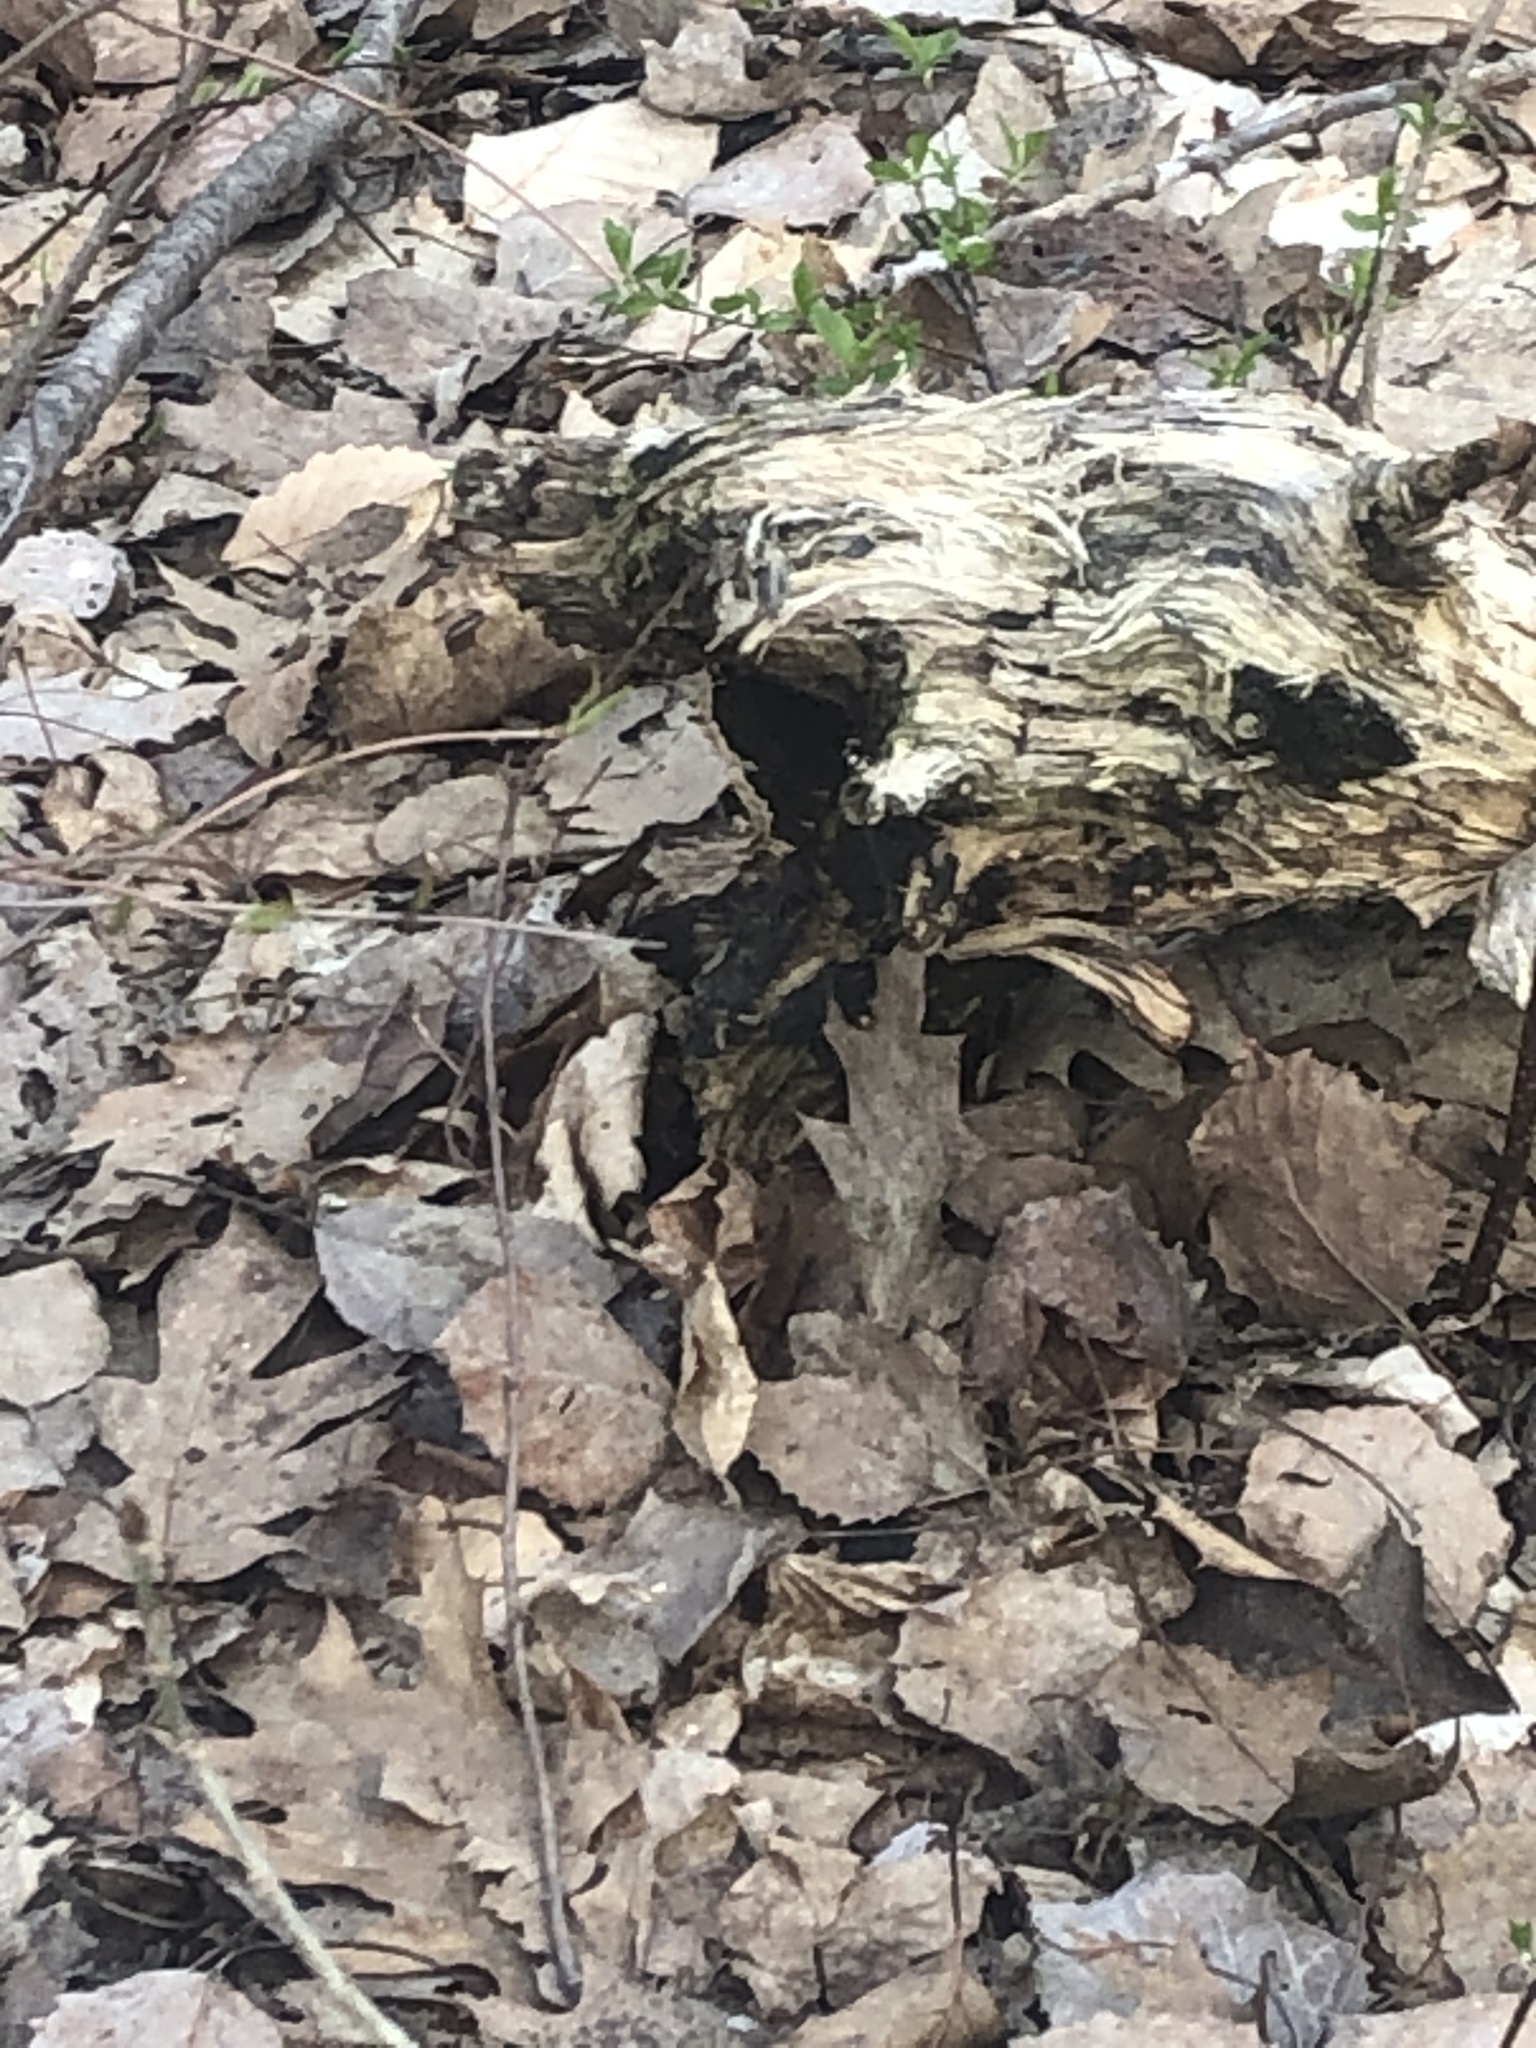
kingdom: Animalia
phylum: Arthropoda
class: Insecta
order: Lepidoptera
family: Nymphalidae
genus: Nymphalis
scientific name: Nymphalis antiopa
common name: Camberwell beauty
